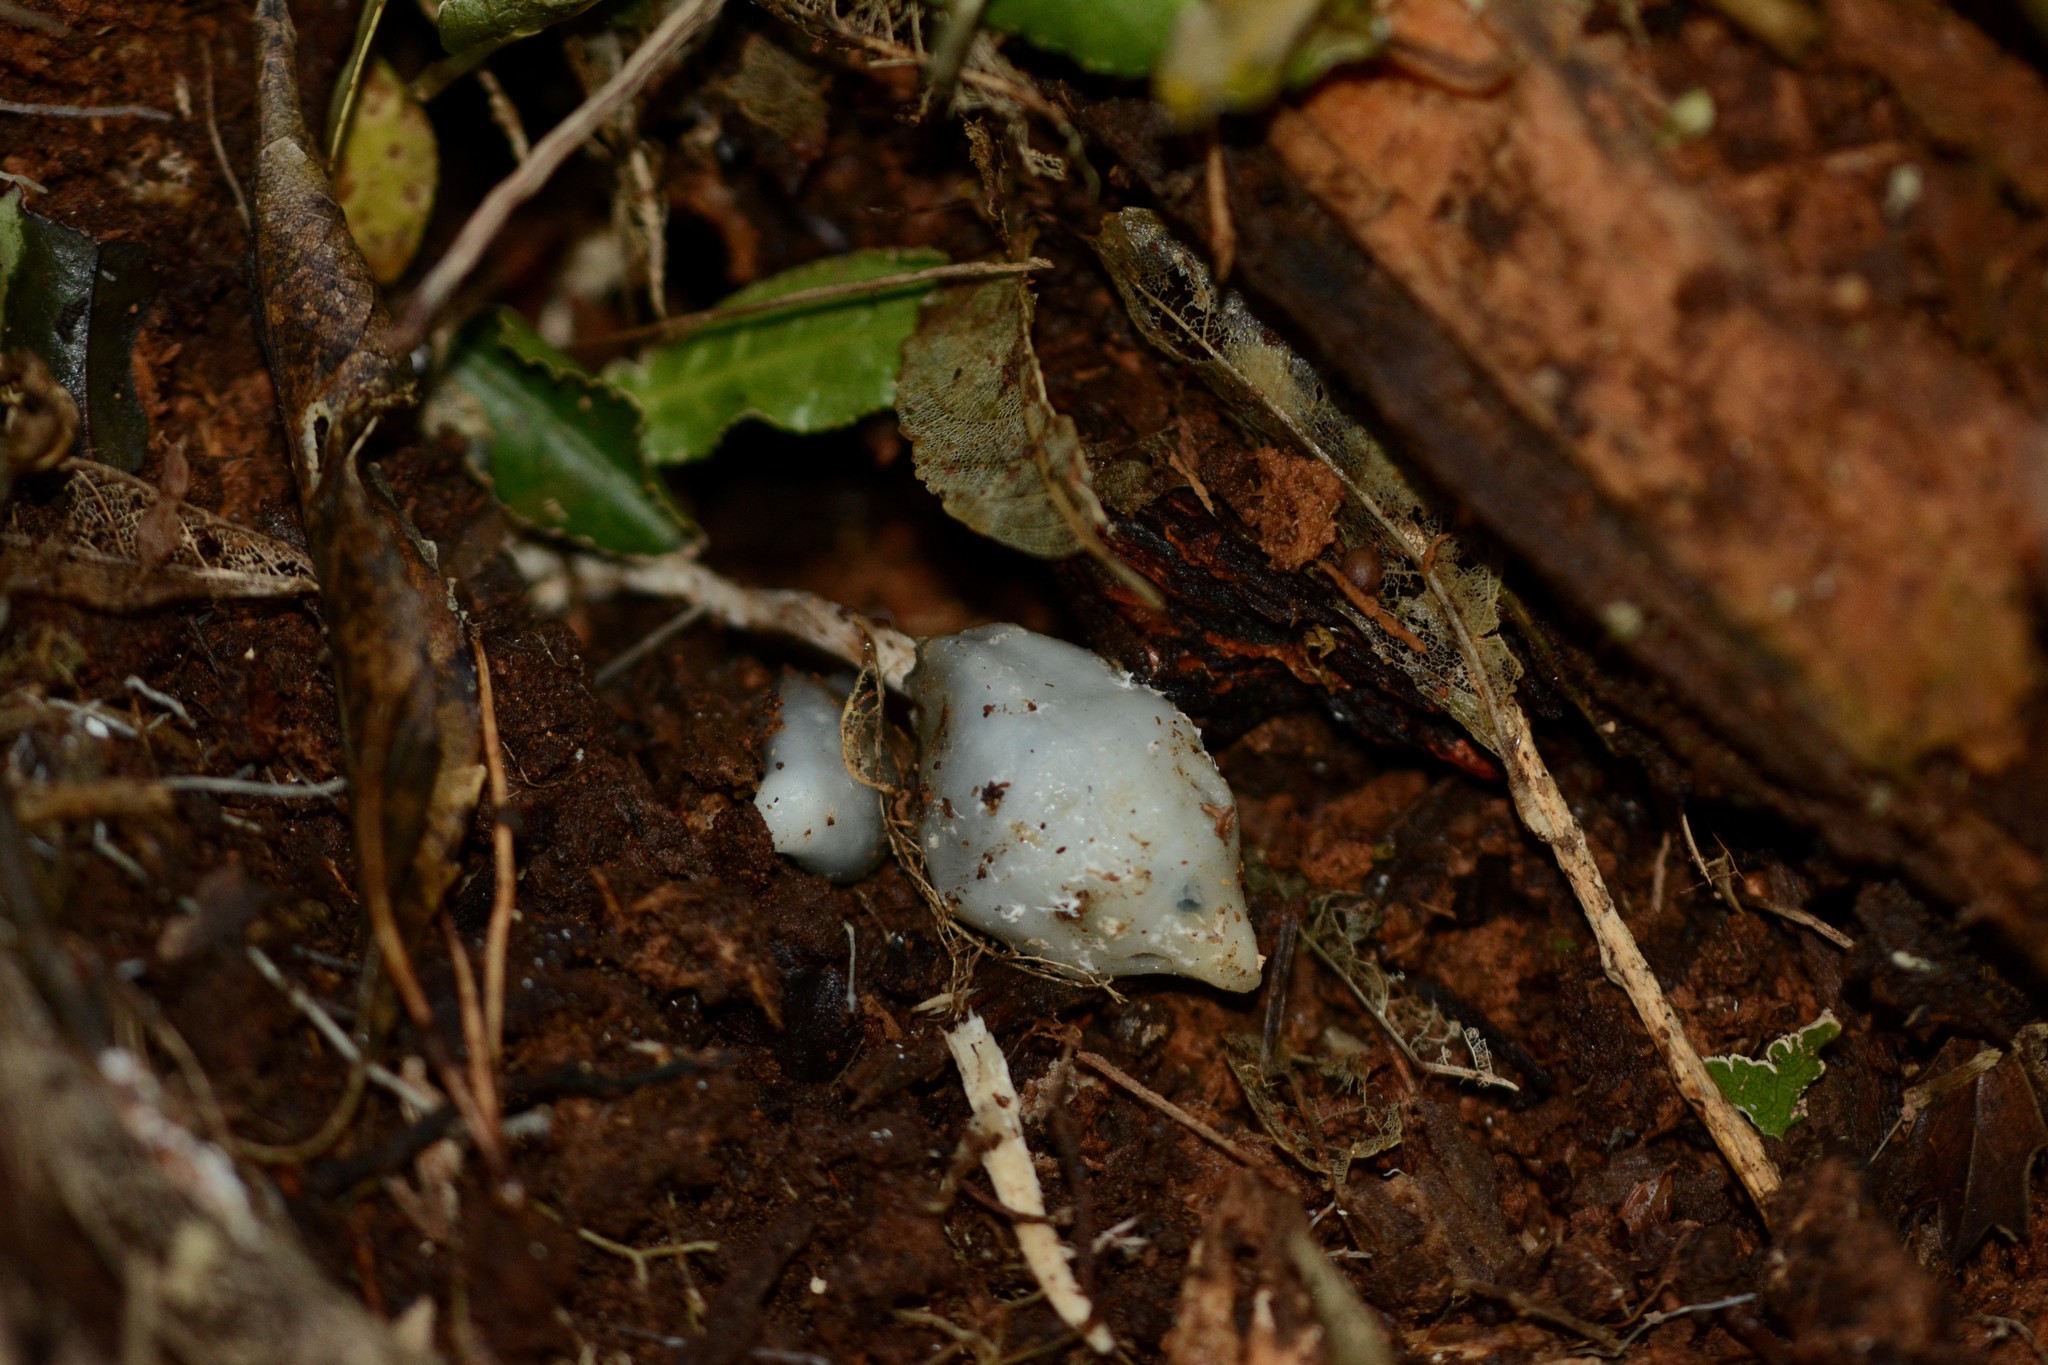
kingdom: Fungi
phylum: Basidiomycota
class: Agaricomycetes
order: Agaricales
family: Hymenogastraceae
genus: Psilocybe
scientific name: Psilocybe weraroa
